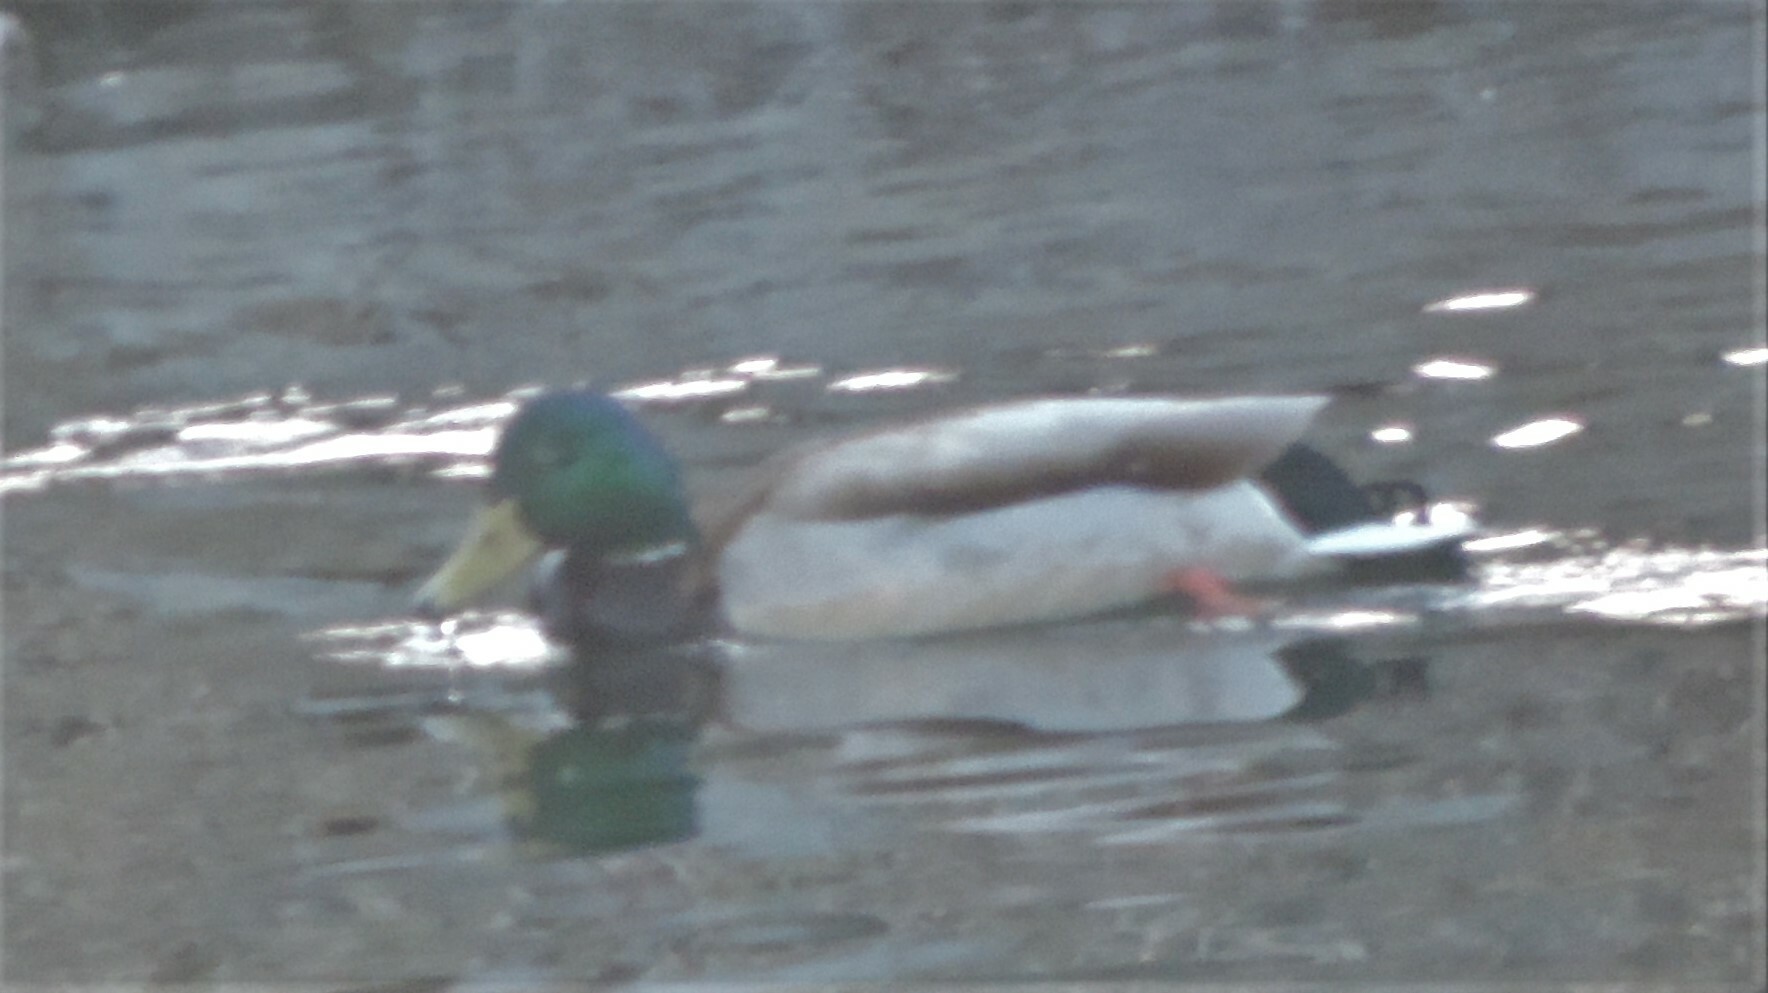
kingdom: Animalia
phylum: Chordata
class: Aves
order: Anseriformes
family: Anatidae
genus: Anas
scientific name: Anas platyrhynchos
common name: Mallard
